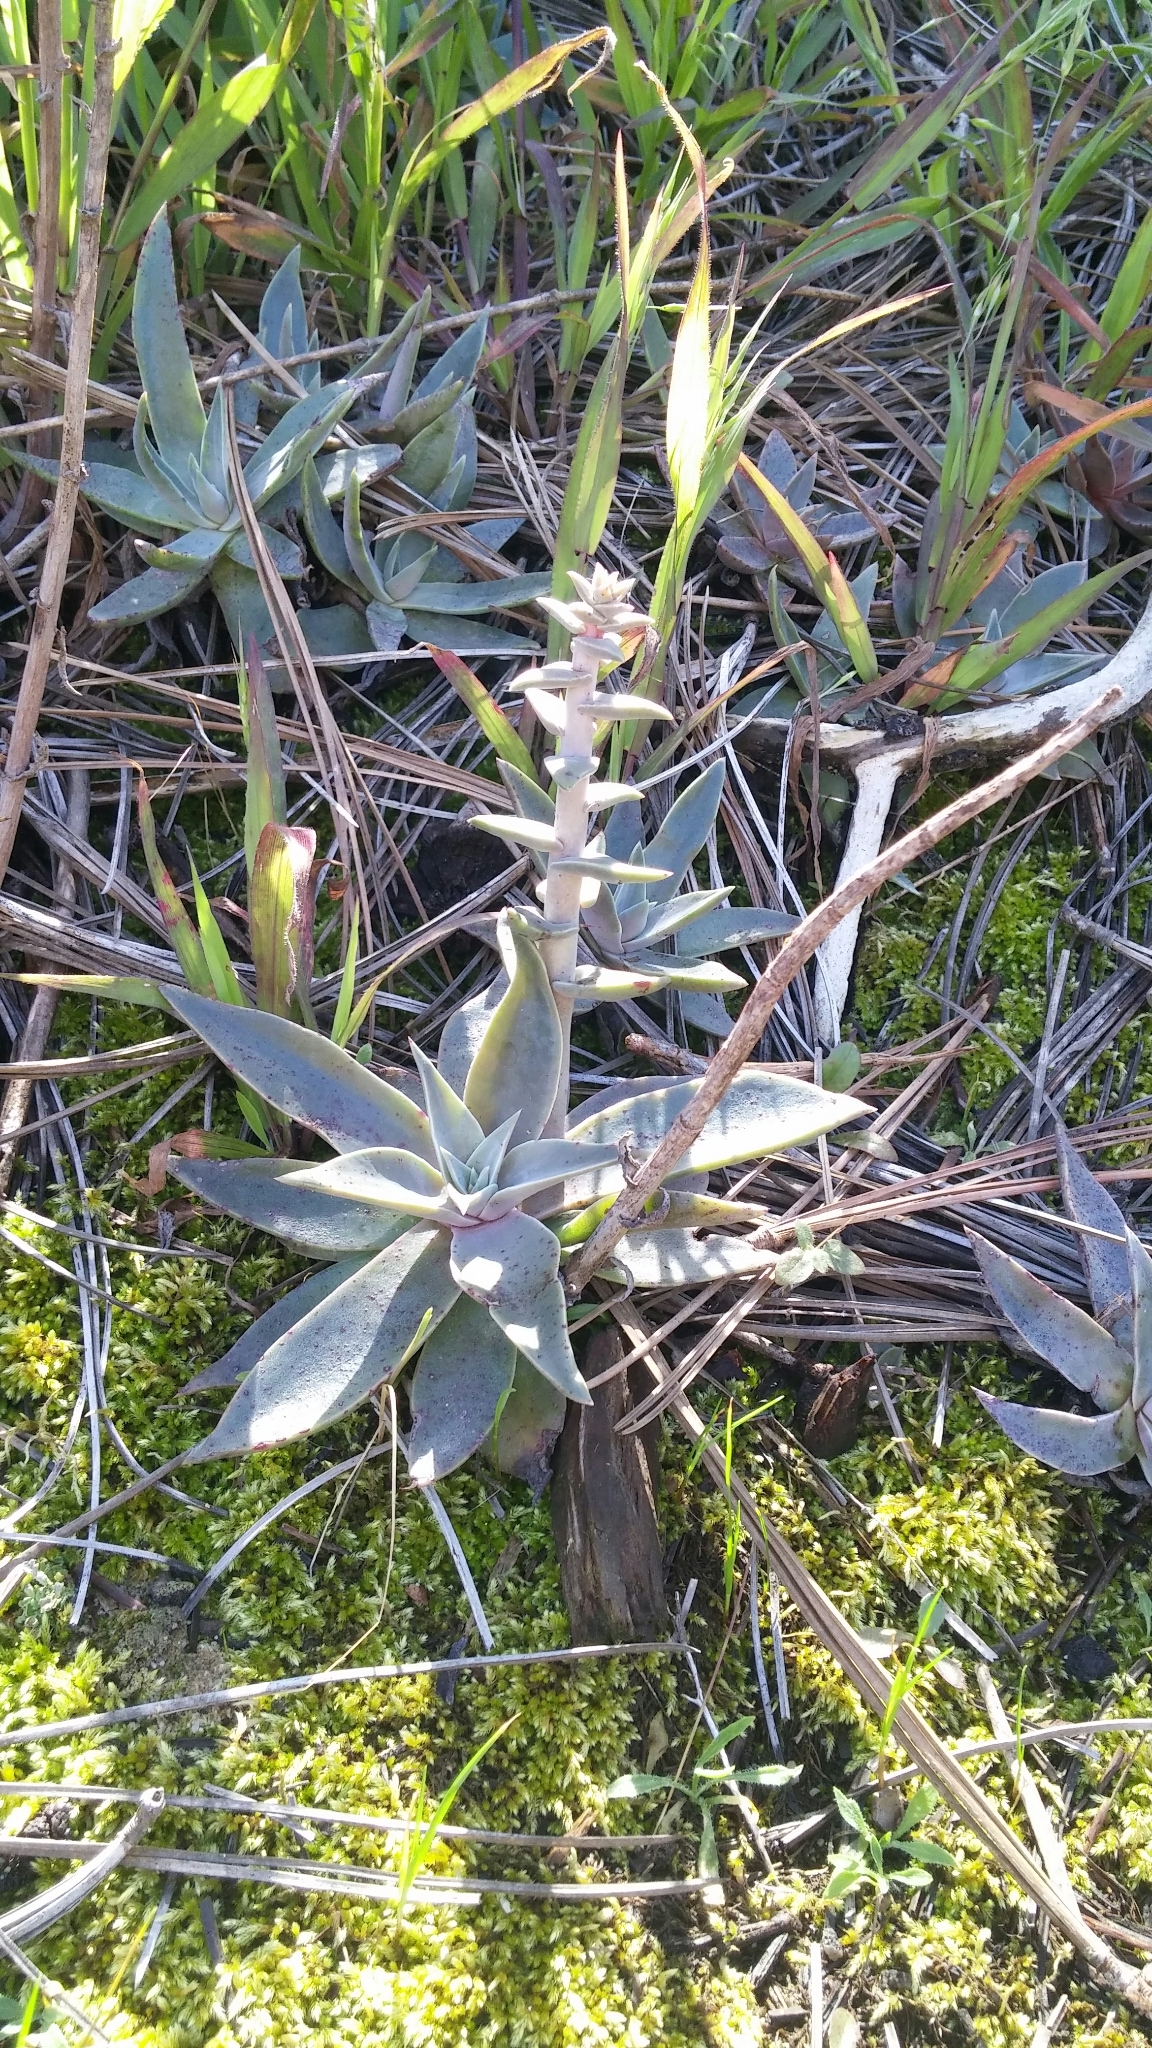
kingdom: Plantae
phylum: Tracheophyta
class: Magnoliopsida
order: Saxifragales
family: Crassulaceae
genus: Dudleya
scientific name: Dudleya lanceolata
